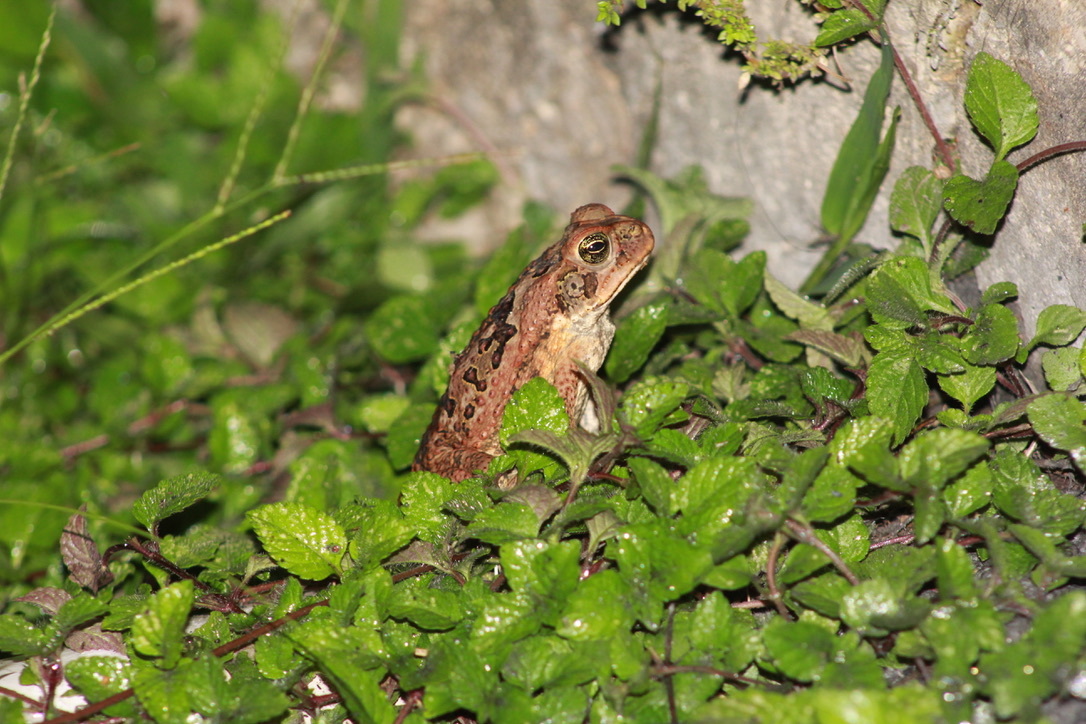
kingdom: Animalia
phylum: Chordata
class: Amphibia
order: Anura
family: Bufonidae
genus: Rhinella
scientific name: Rhinella marina
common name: Cane toad
